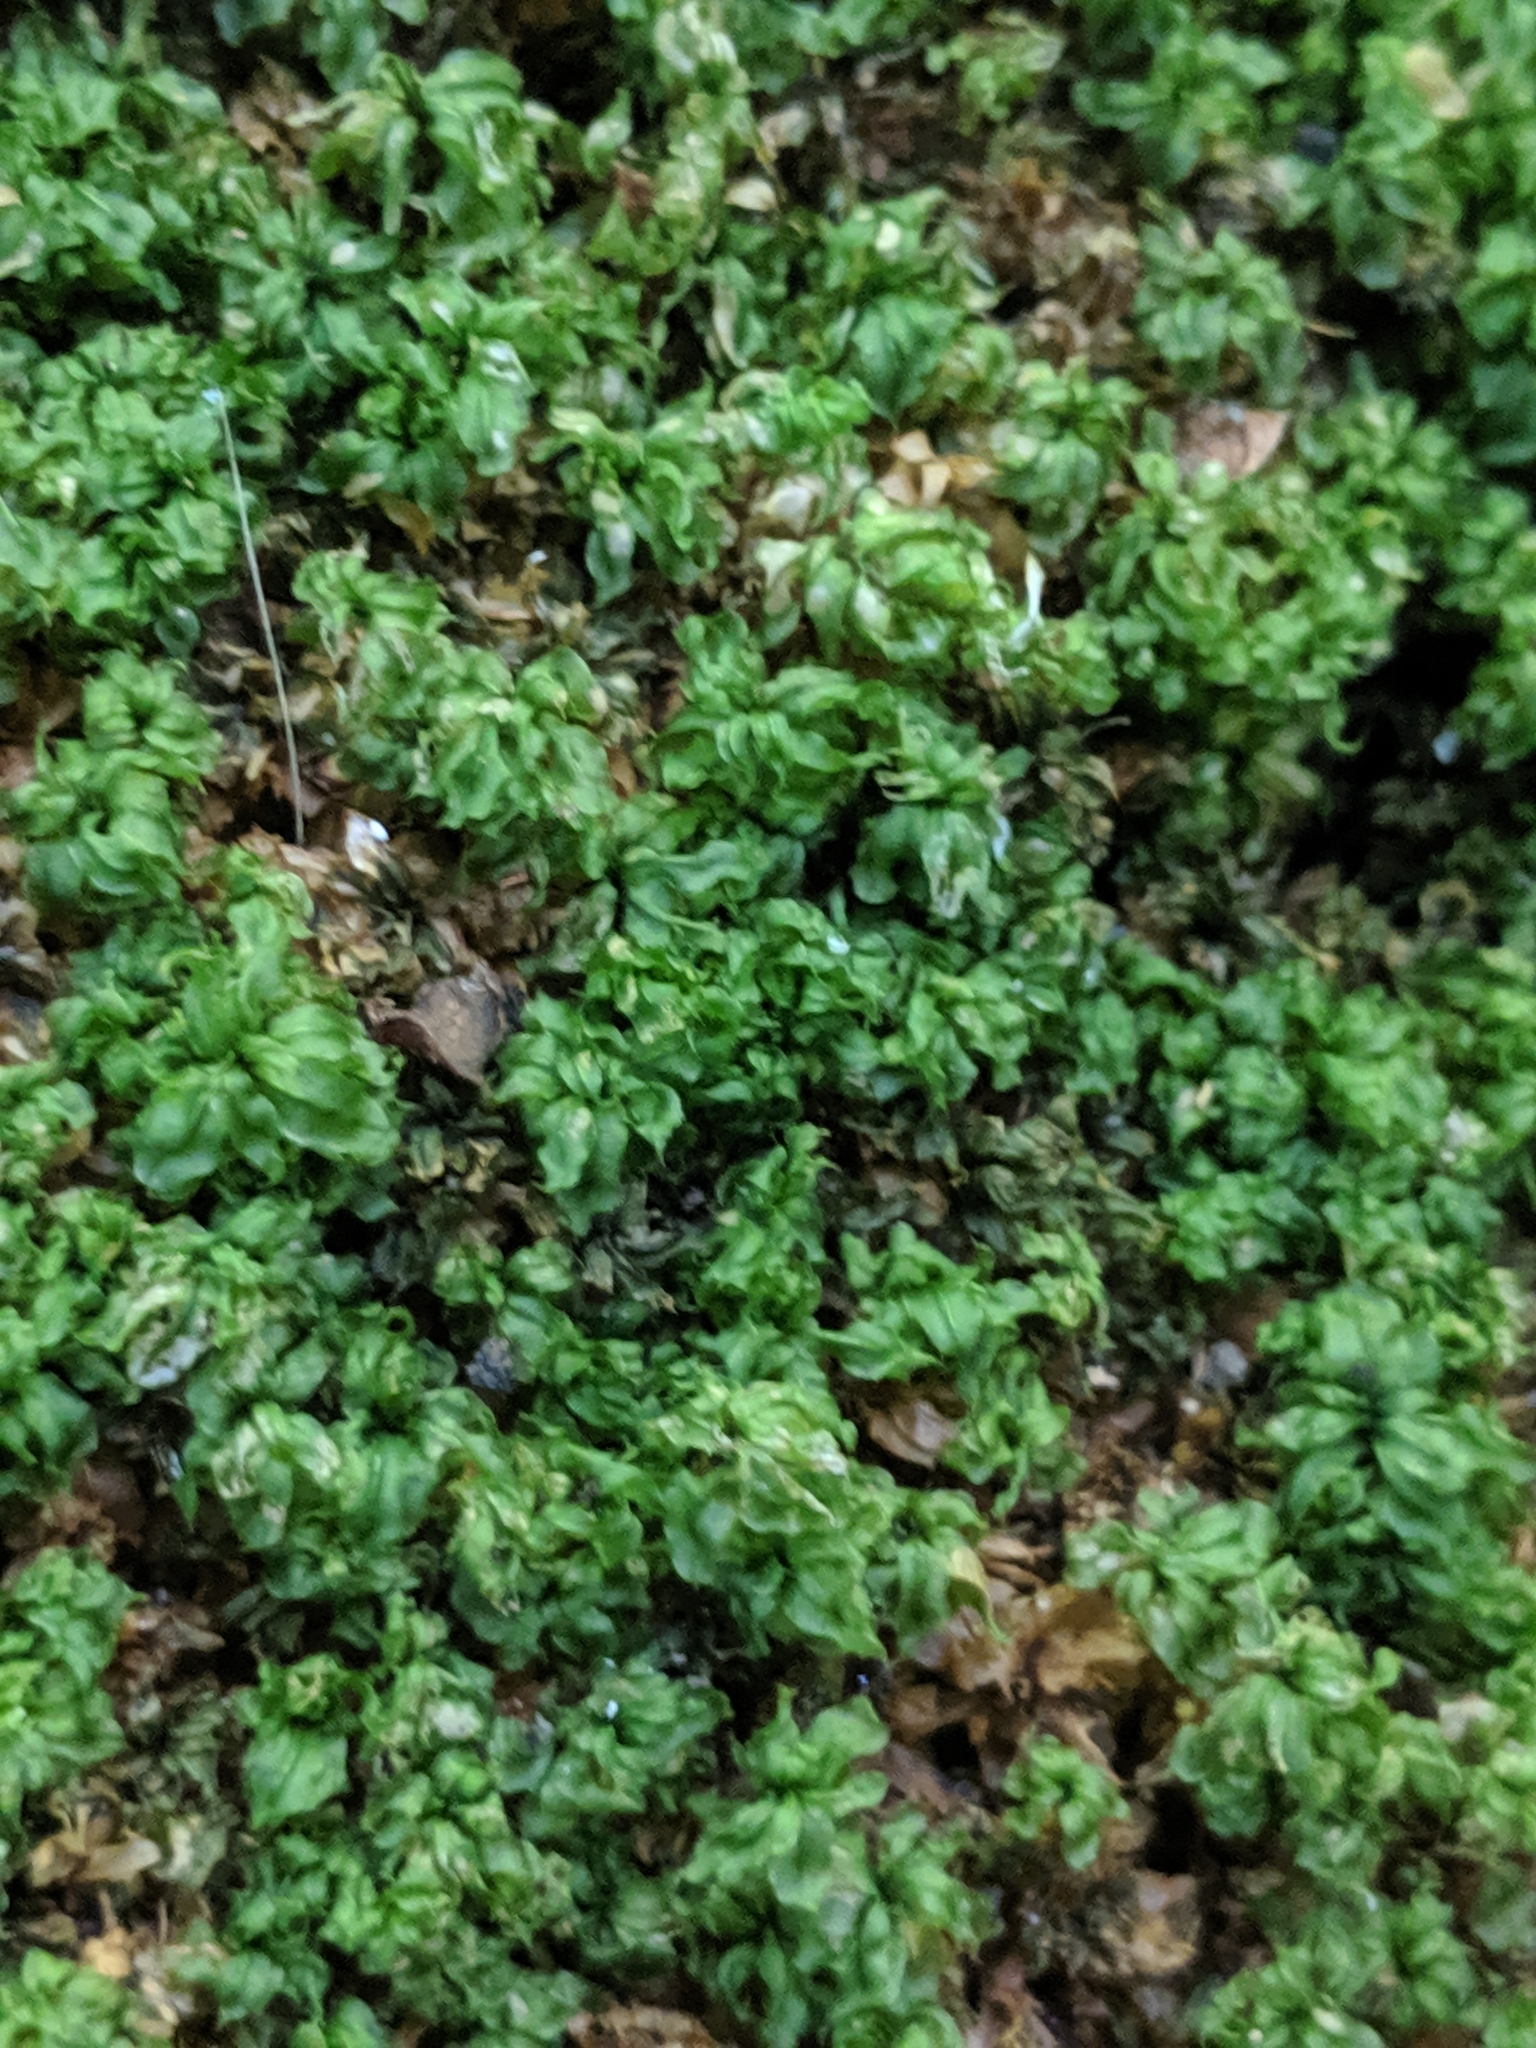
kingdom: Plantae
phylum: Bryophyta
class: Bryopsida
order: Bryales
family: Mniaceae
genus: Plagiomnium
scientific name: Plagiomnium cuspidatum
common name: Woodsy leafy moss
